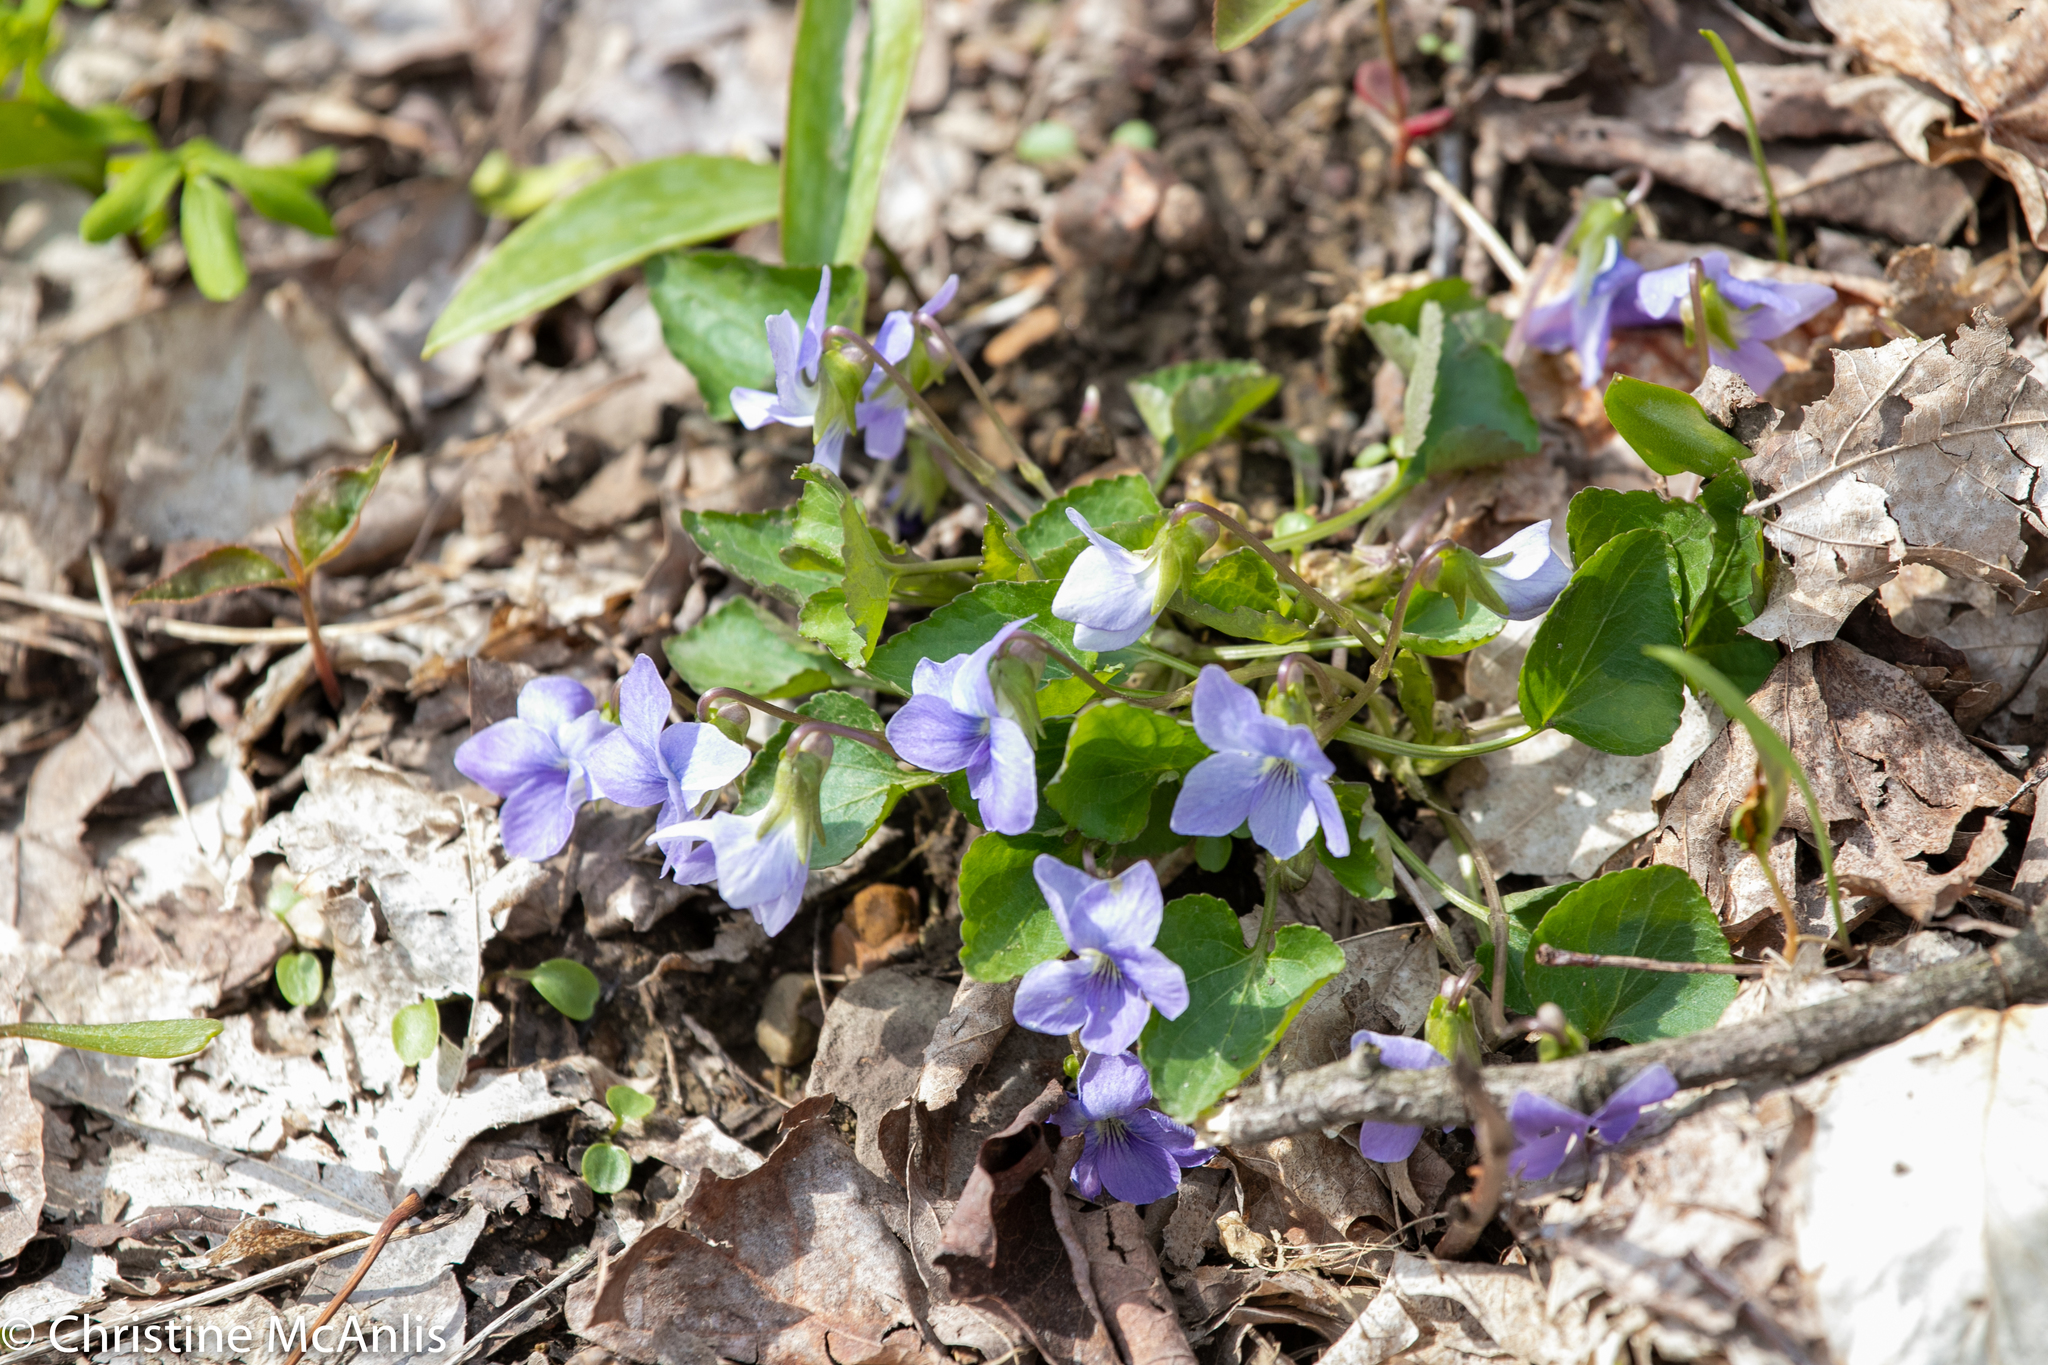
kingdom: Plantae
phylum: Tracheophyta
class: Magnoliopsida
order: Malpighiales
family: Violaceae
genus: Viola
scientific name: Viola labradorica
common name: Labrador violet
